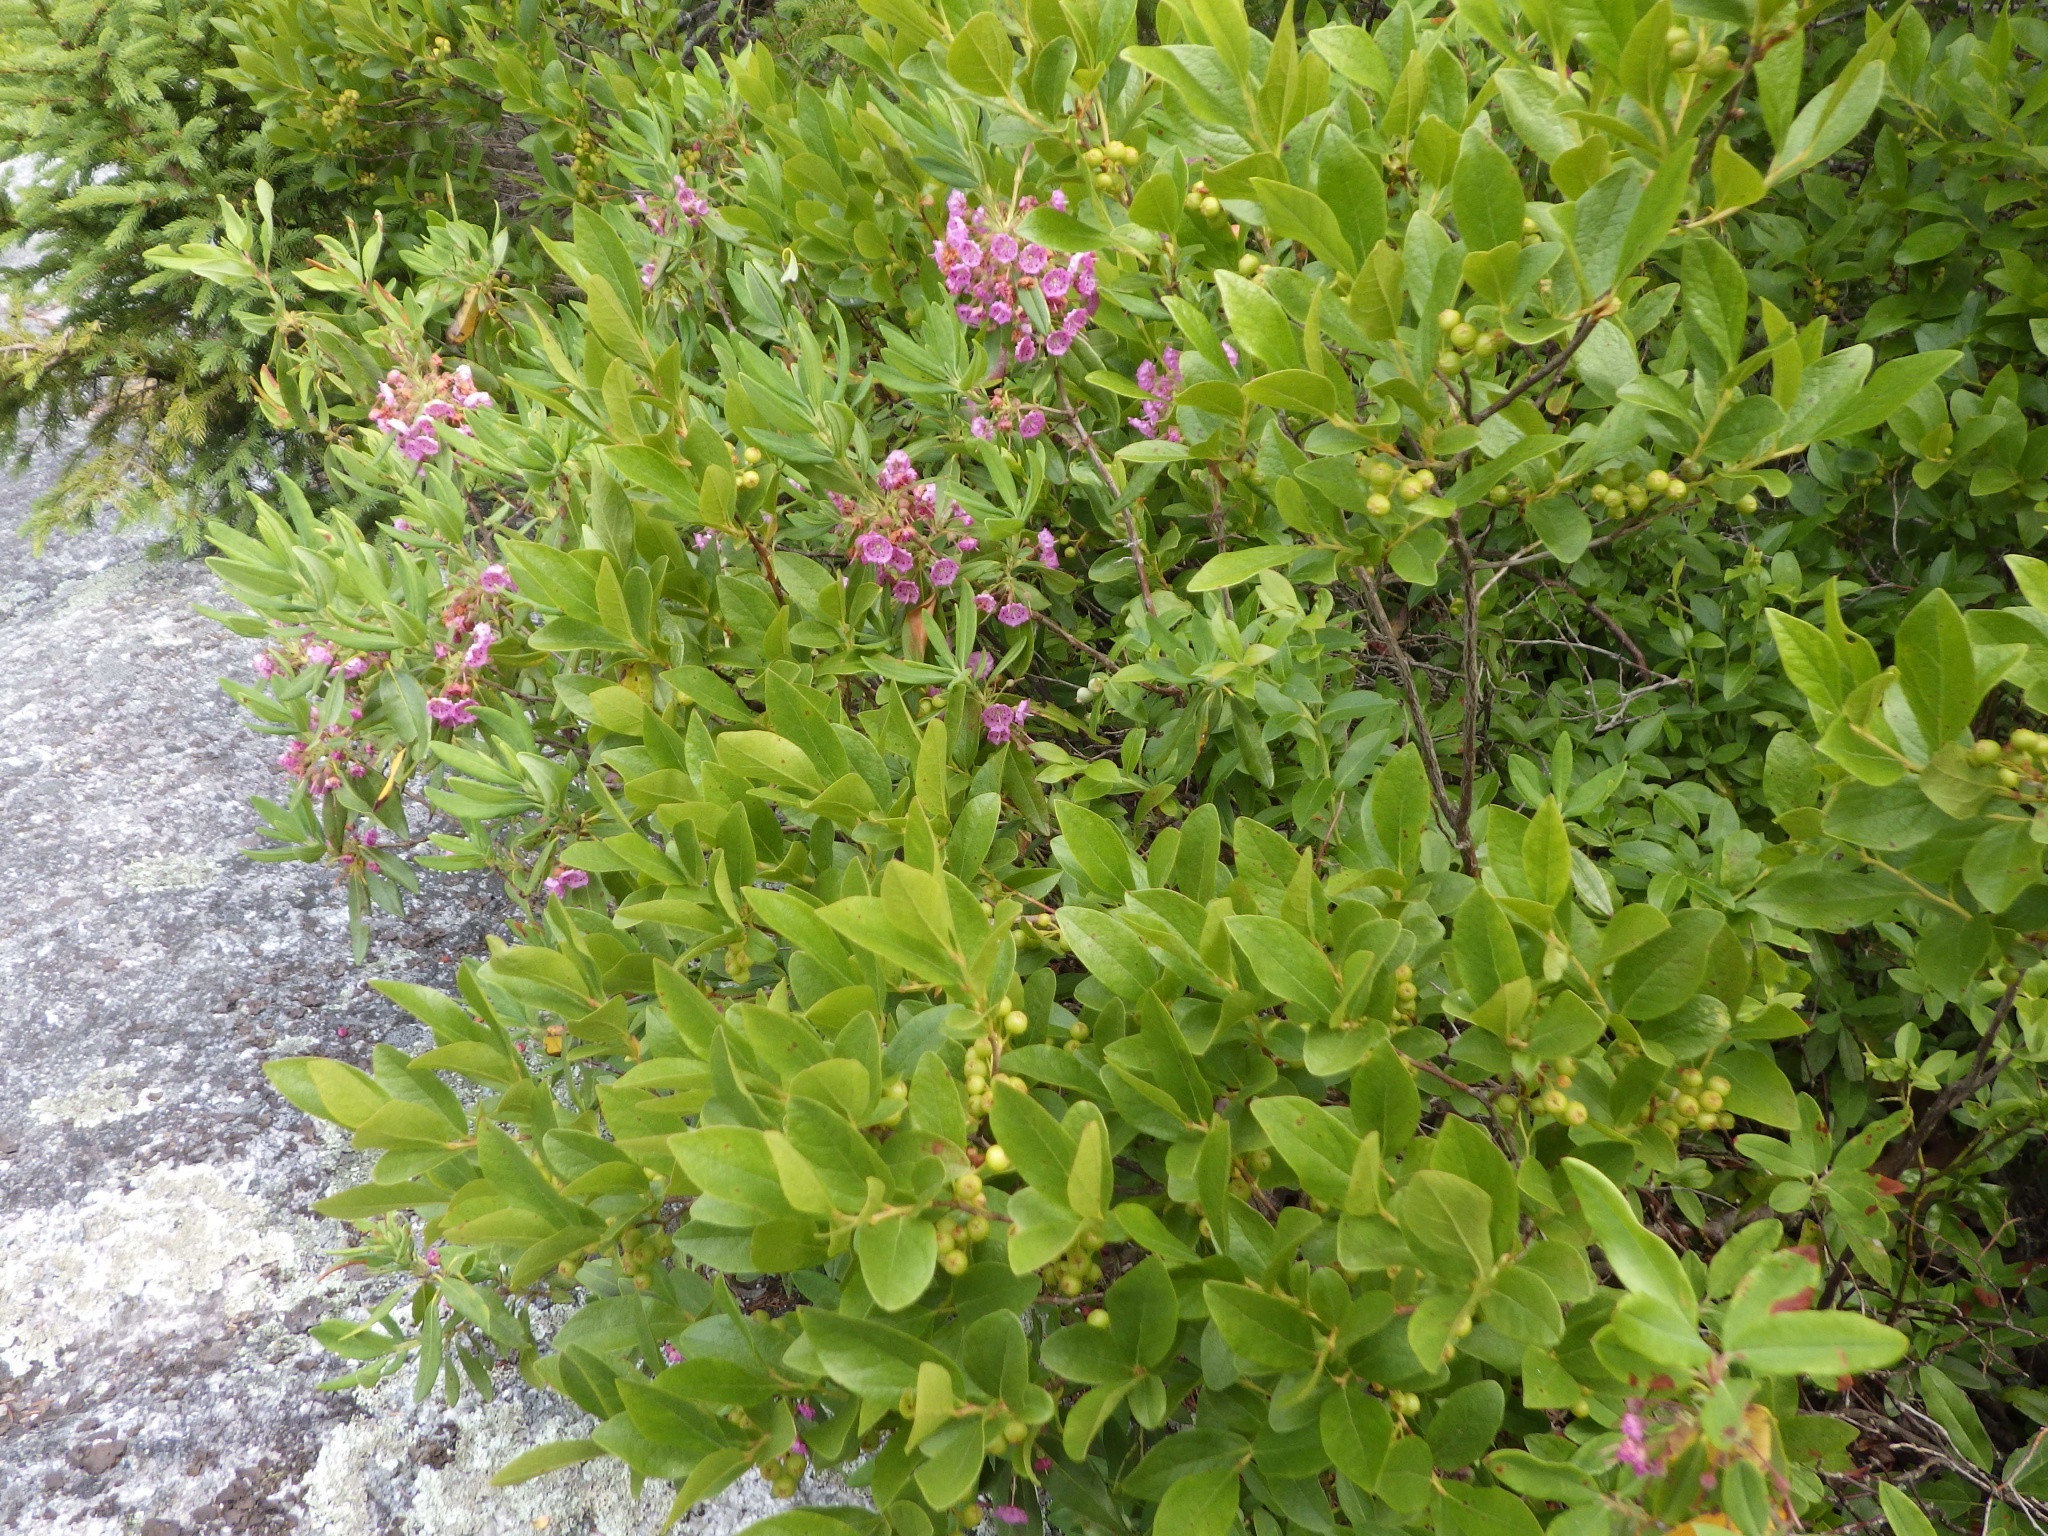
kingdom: Plantae
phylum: Tracheophyta
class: Magnoliopsida
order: Ericales
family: Ericaceae
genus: Kalmia
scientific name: Kalmia angustifolia
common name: Sheep-laurel
